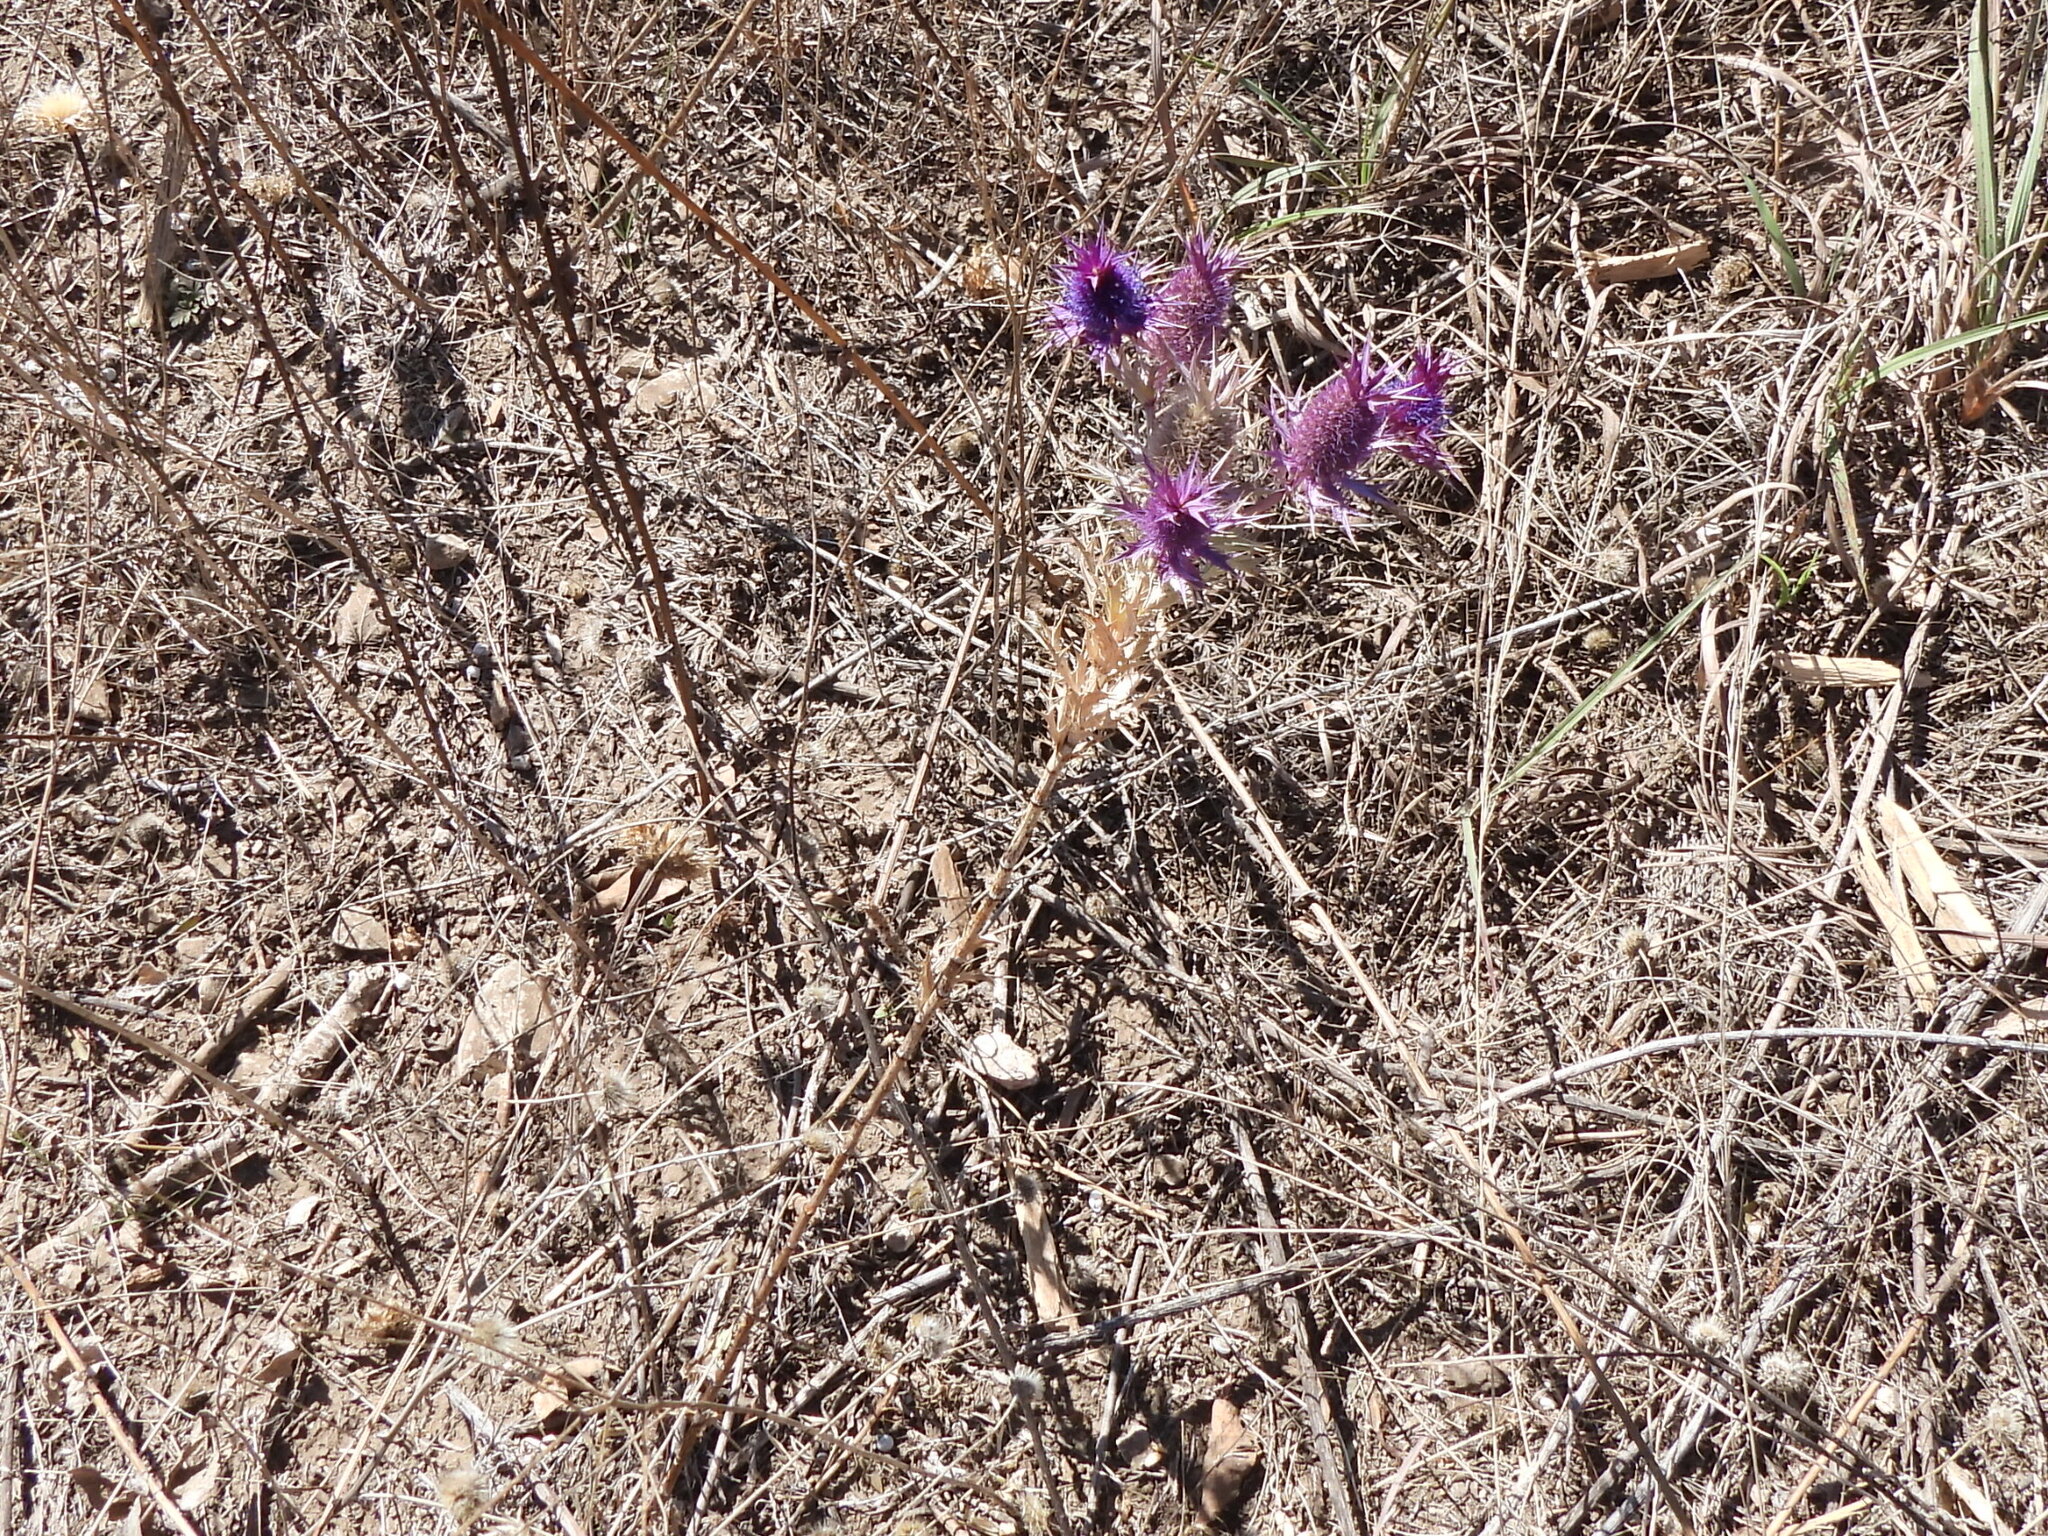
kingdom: Plantae
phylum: Tracheophyta
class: Magnoliopsida
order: Apiales
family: Apiaceae
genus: Eryngium
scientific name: Eryngium leavenworthii
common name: Leavenworth's eryngo
